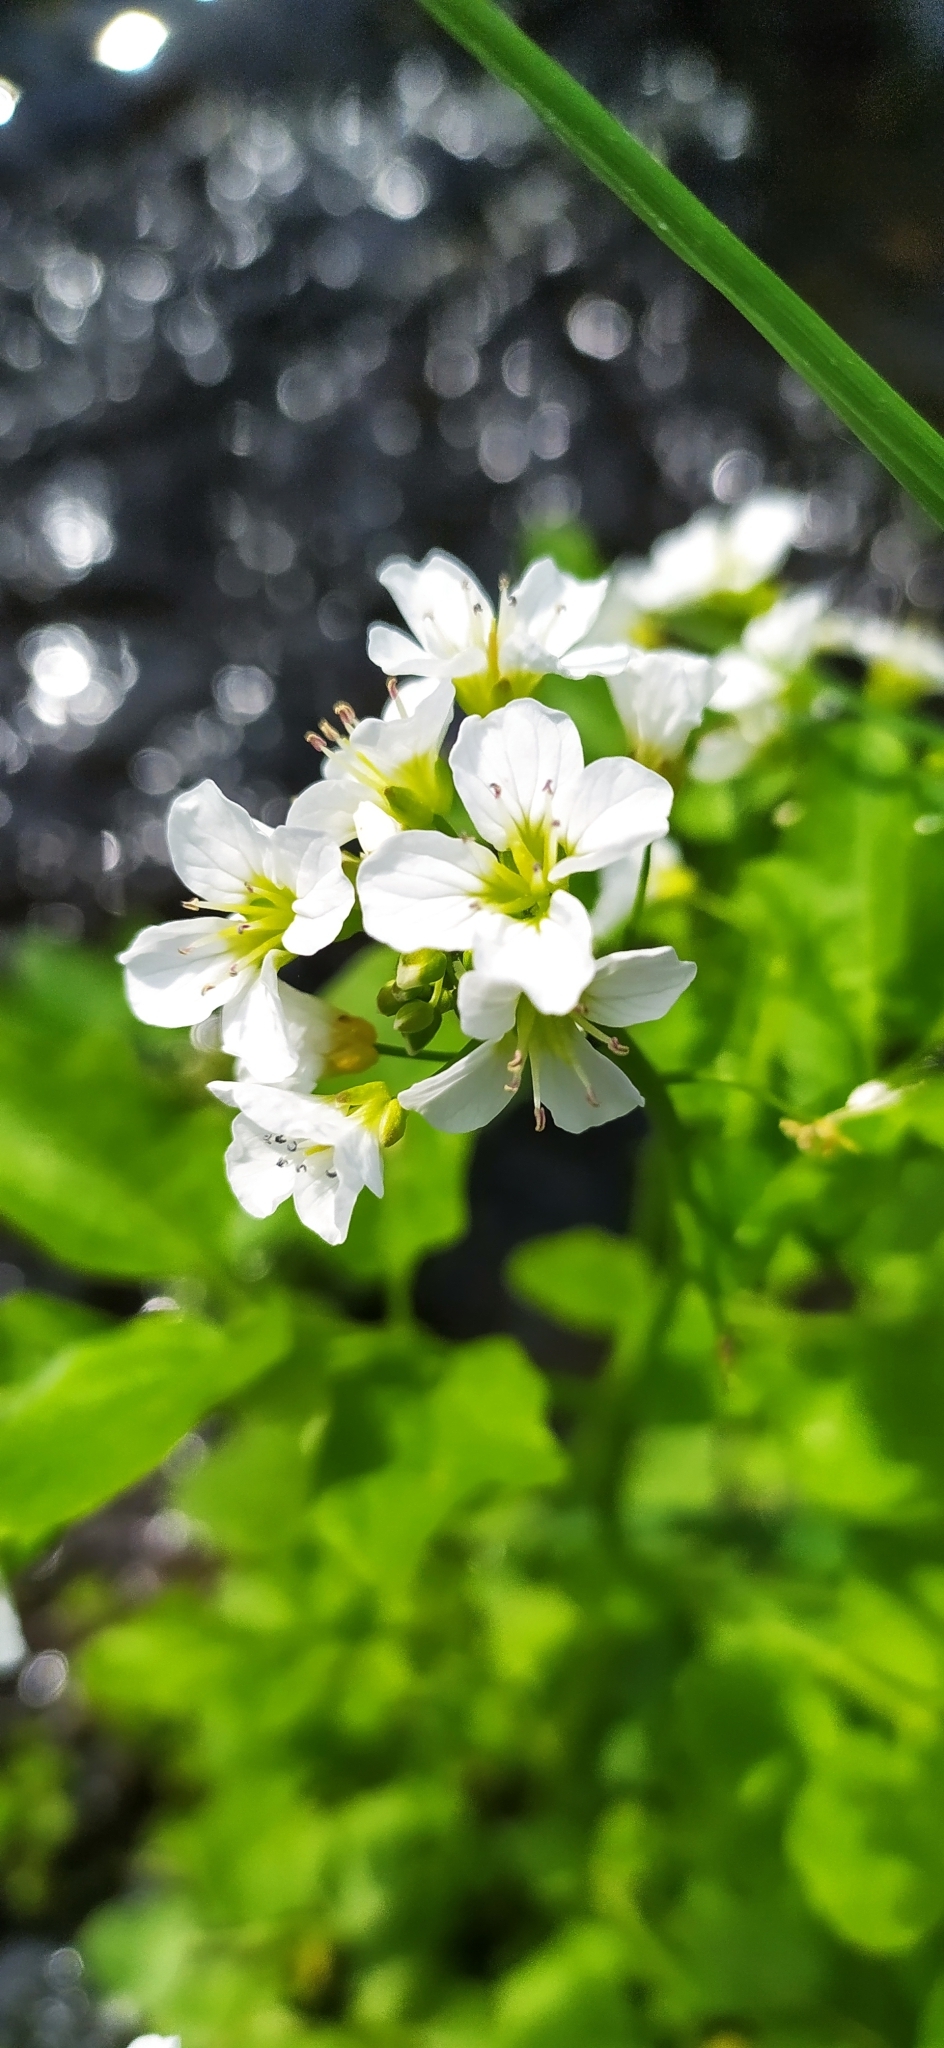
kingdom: Plantae
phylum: Tracheophyta
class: Magnoliopsida
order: Brassicales
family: Brassicaceae
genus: Cardamine
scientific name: Cardamine amara
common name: Large bitter-cress
